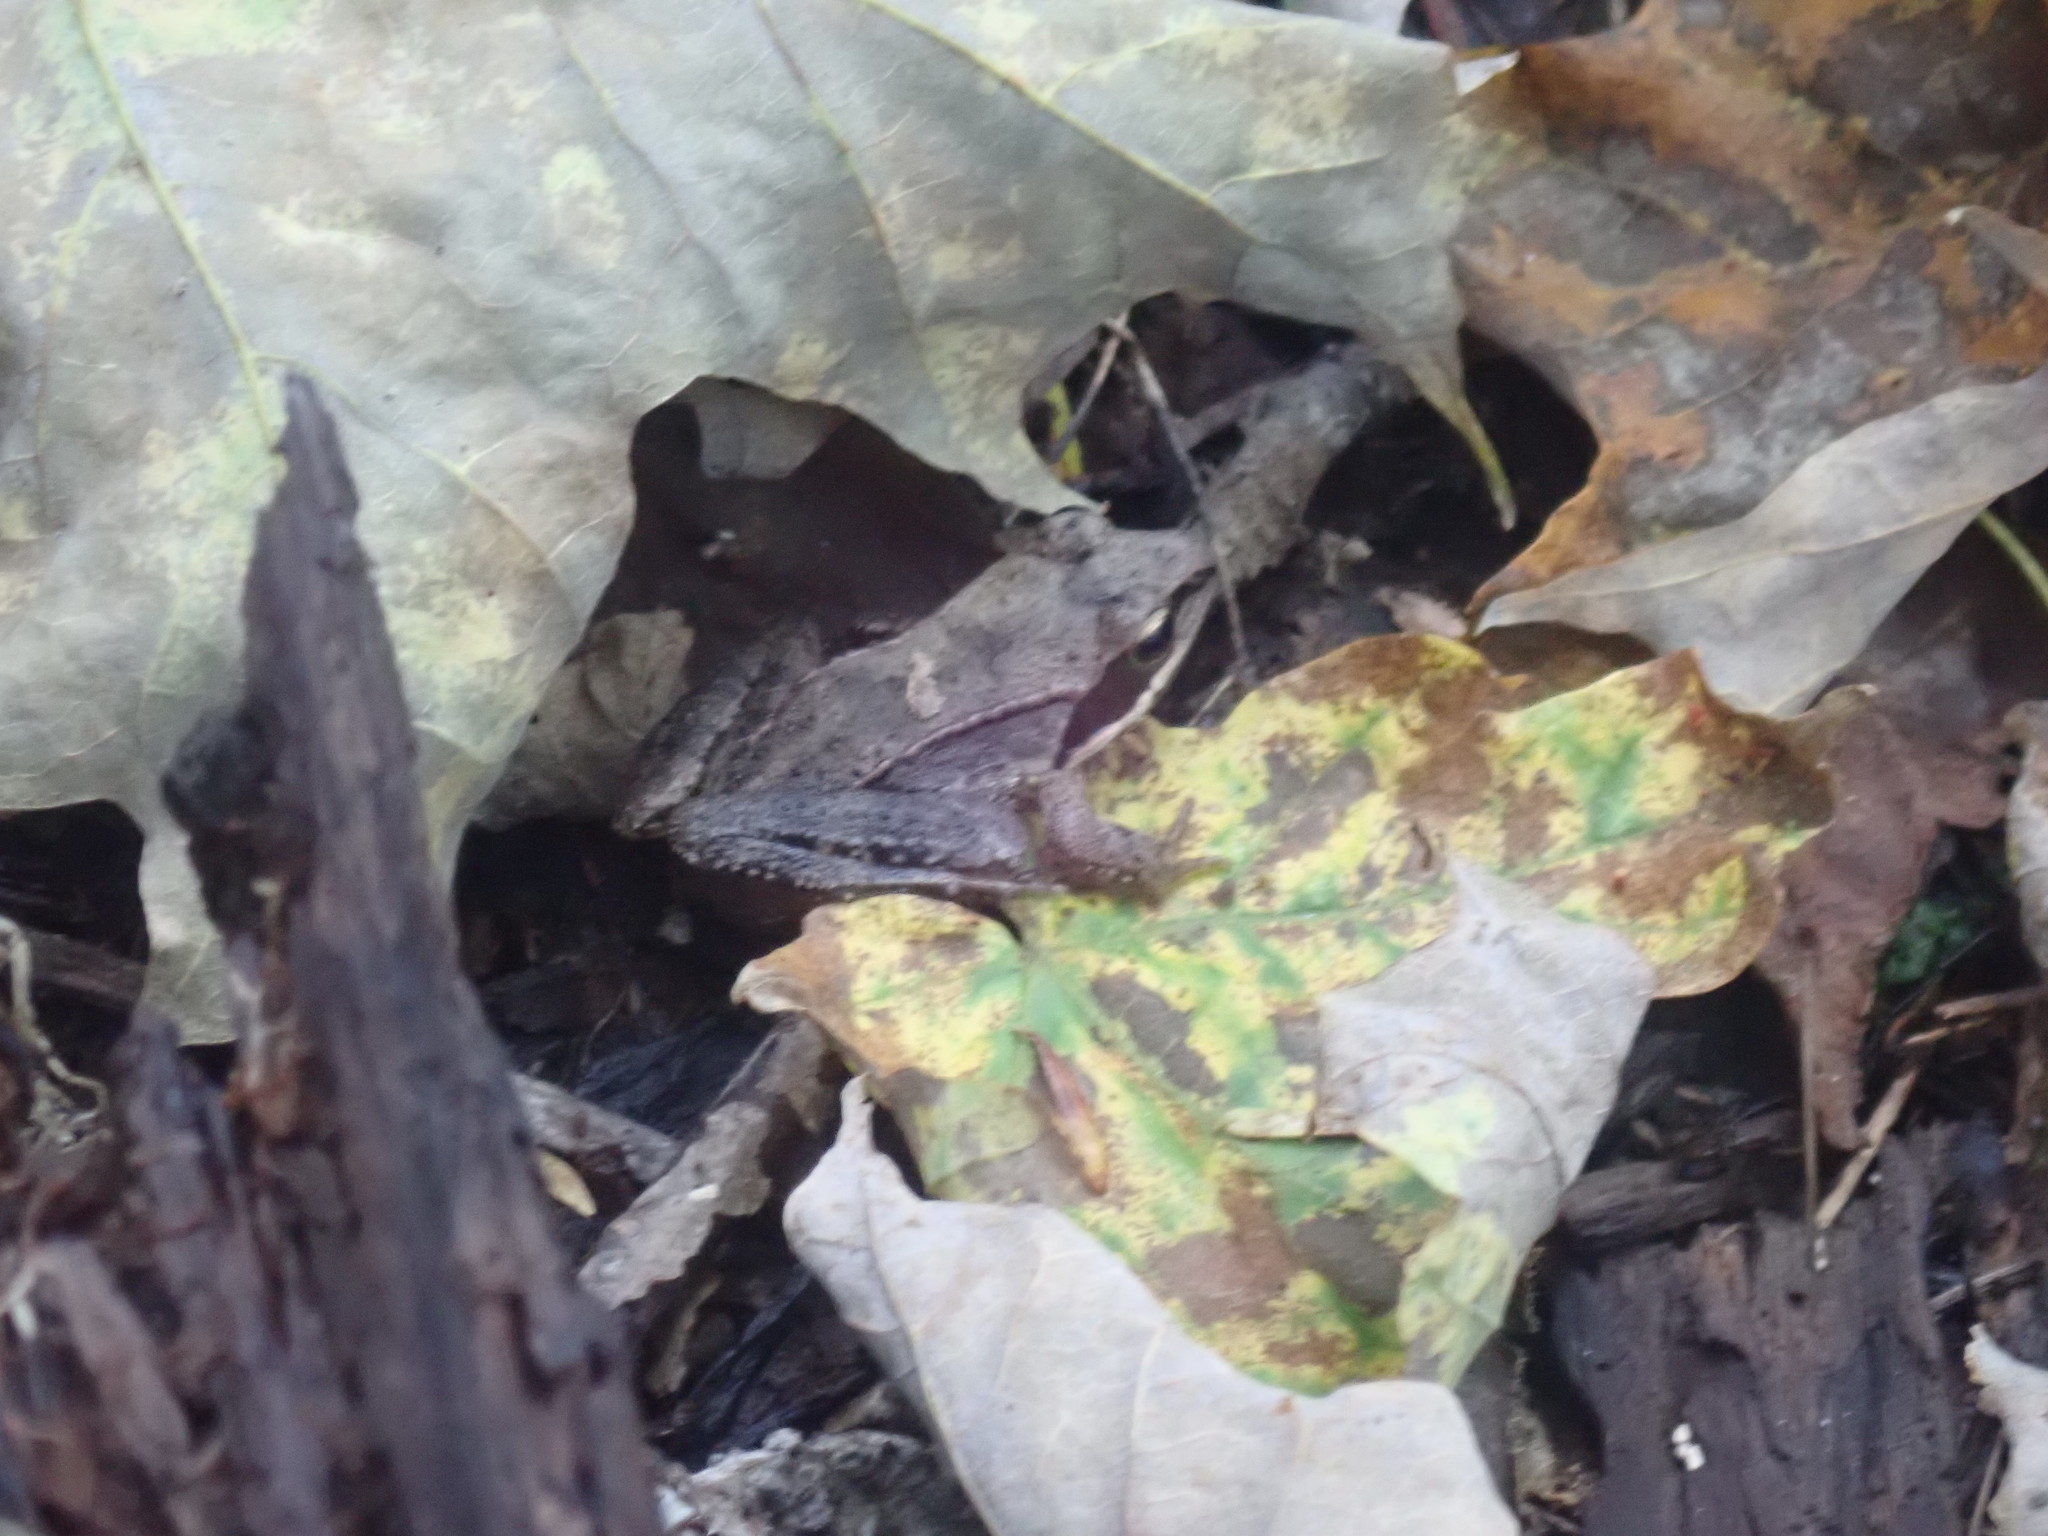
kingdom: Animalia
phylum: Chordata
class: Amphibia
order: Anura
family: Ranidae
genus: Lithobates
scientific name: Lithobates sylvaticus
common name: Wood frog
